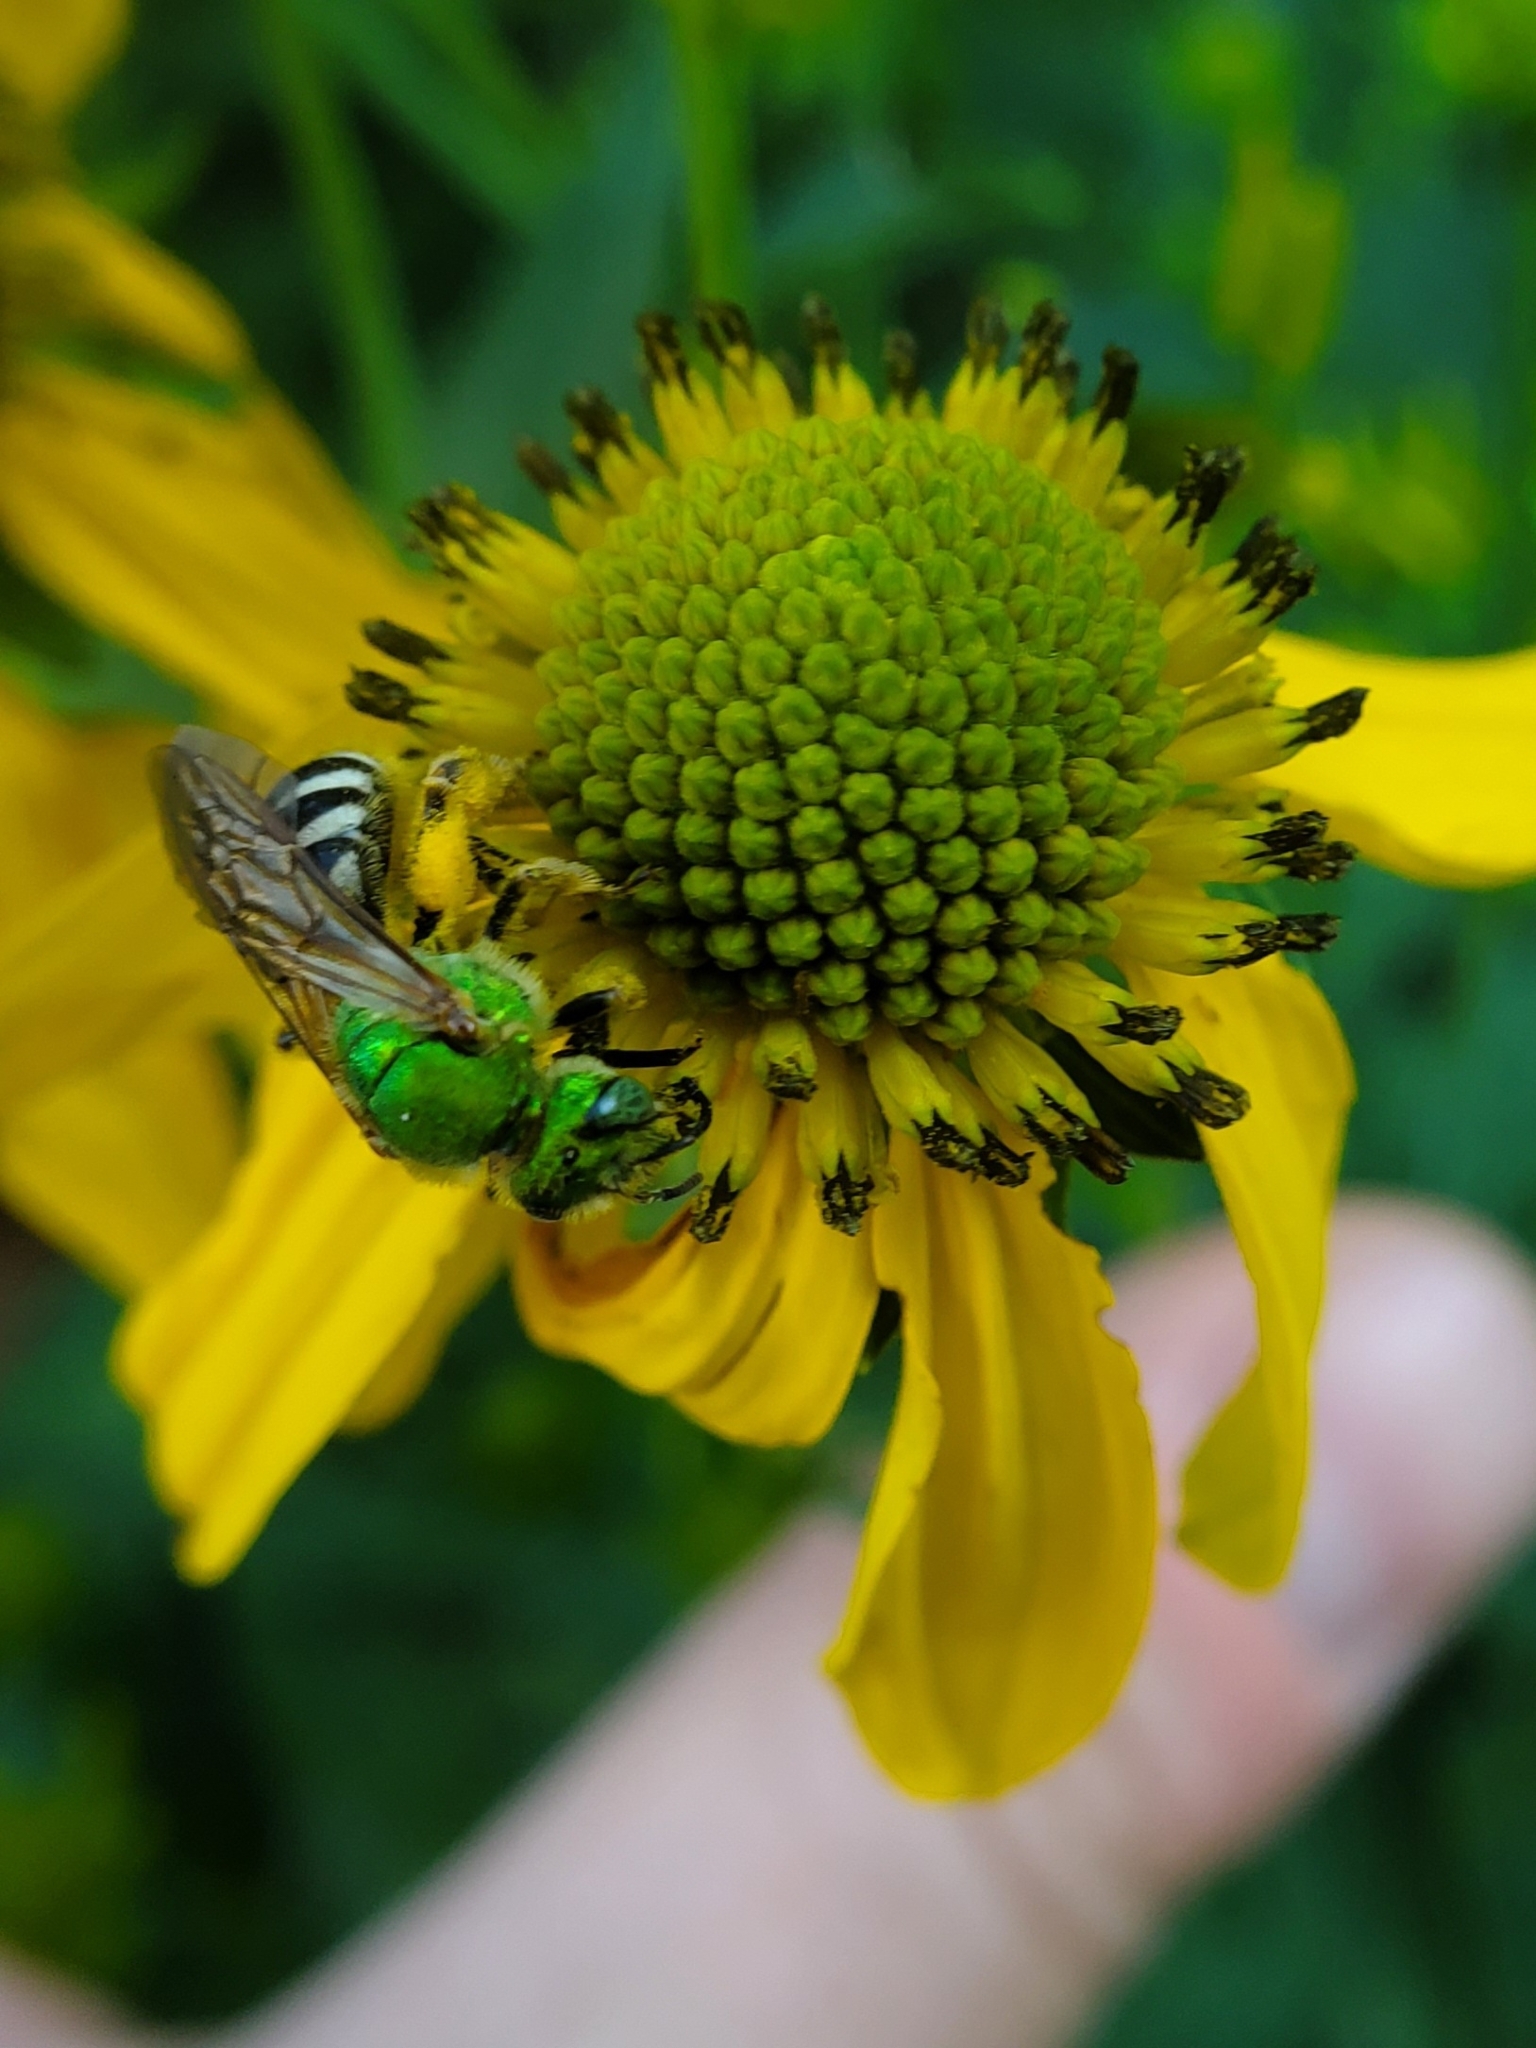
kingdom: Animalia
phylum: Arthropoda
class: Insecta
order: Hymenoptera
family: Halictidae
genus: Agapostemon
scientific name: Agapostemon virescens
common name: Bicolored striped sweat bee
